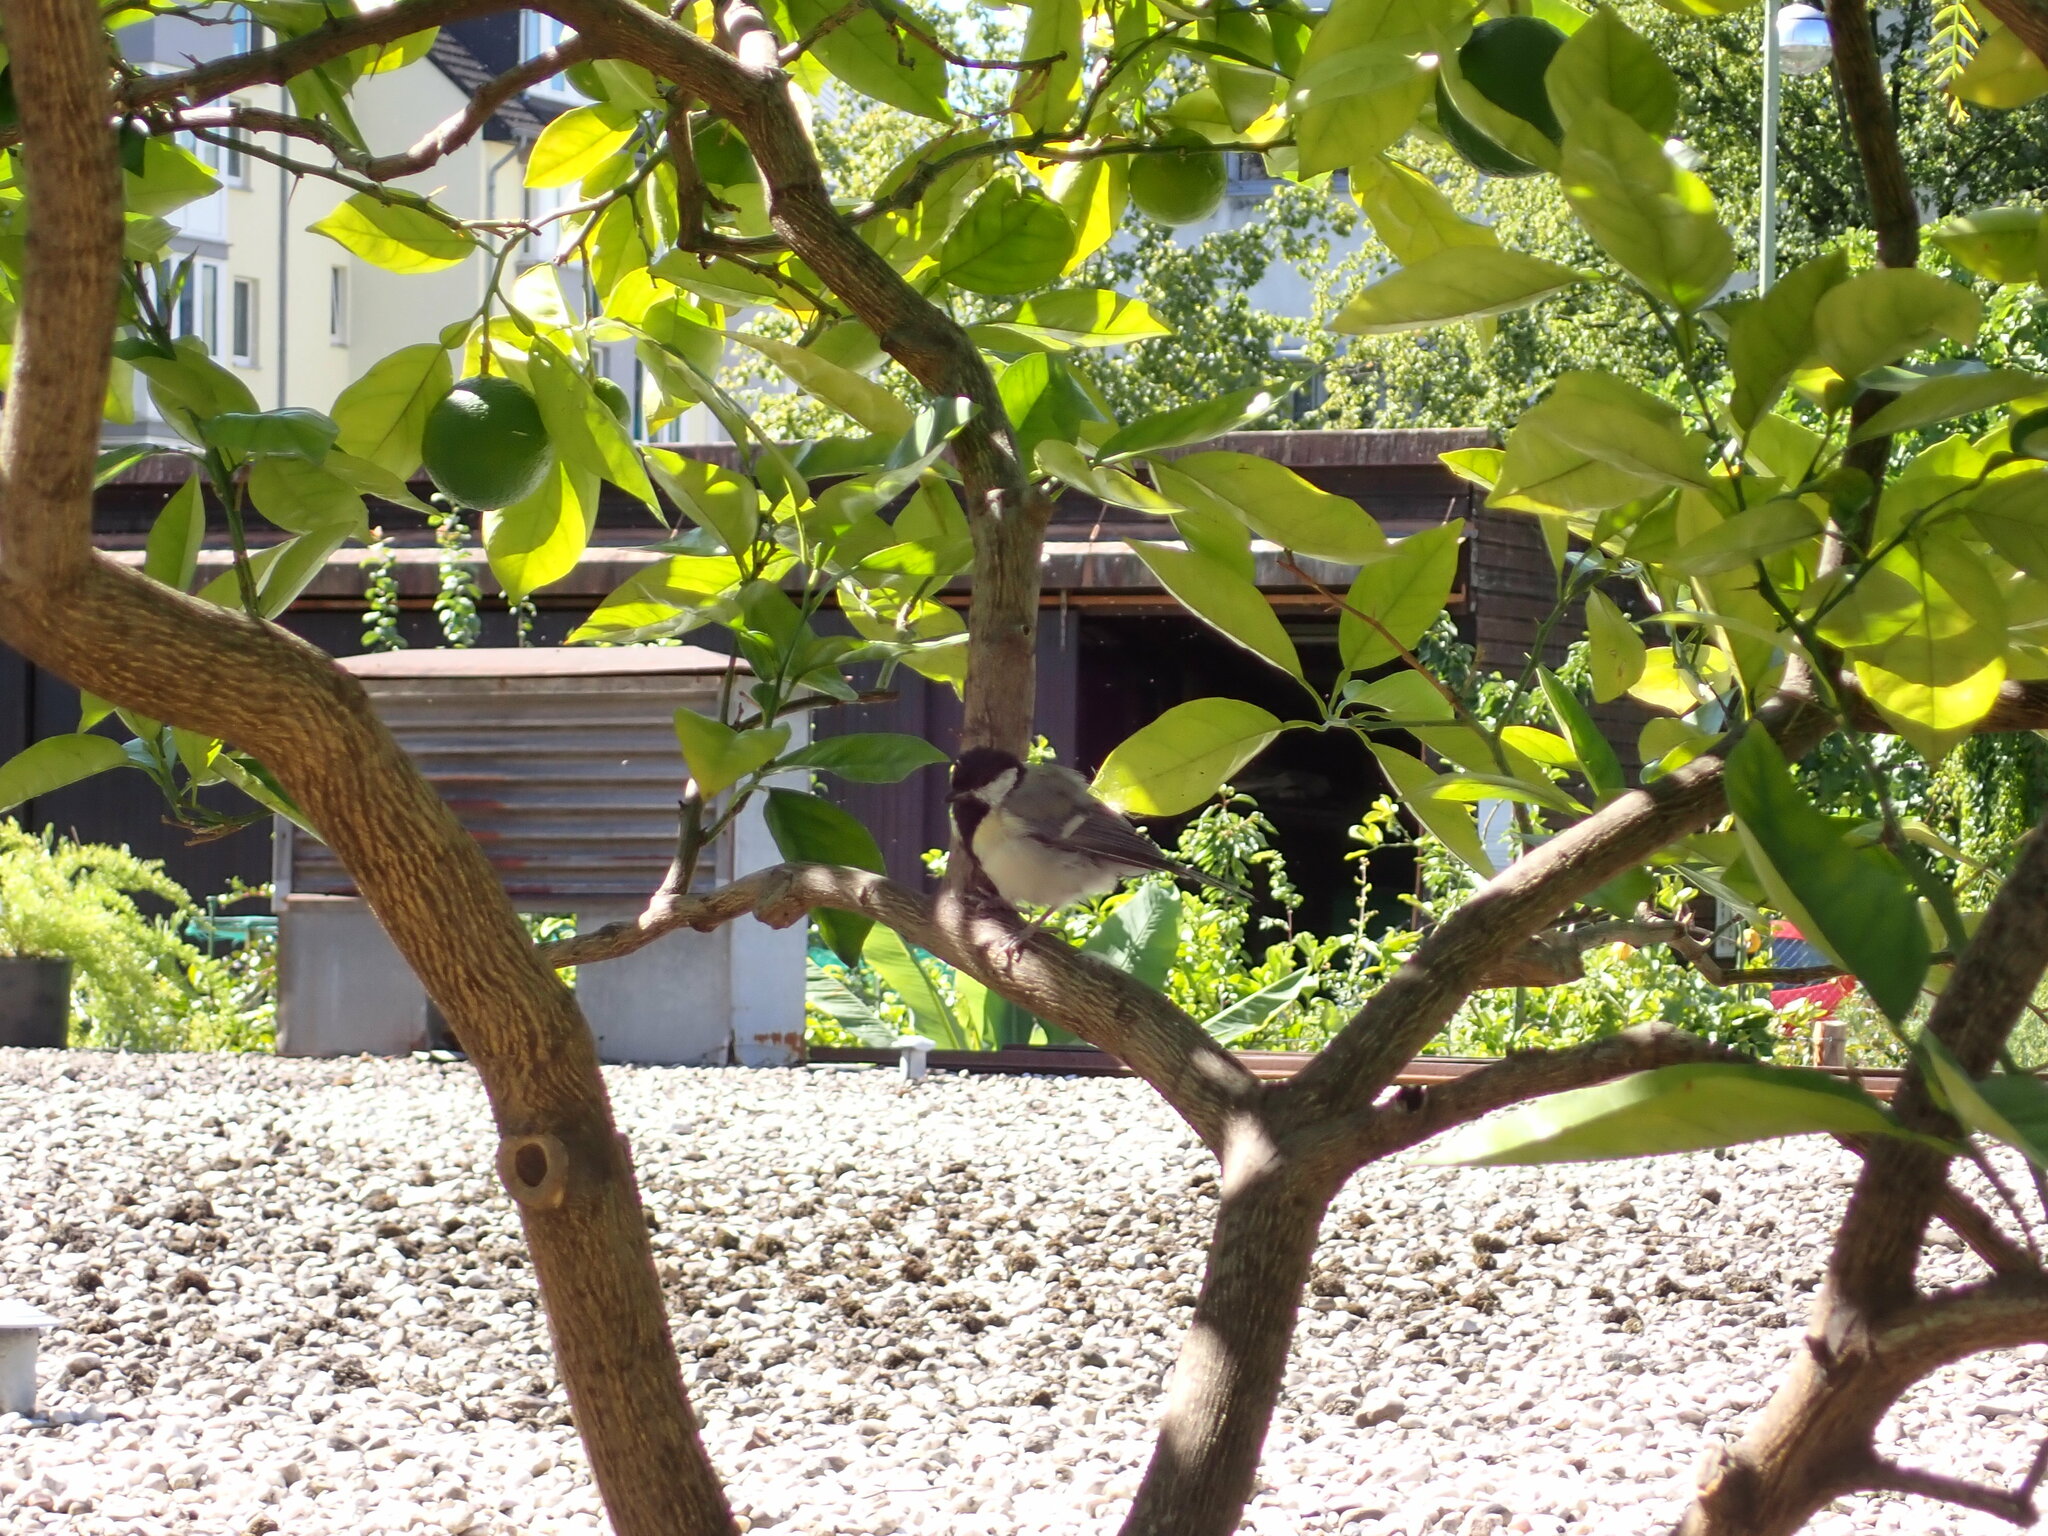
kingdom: Animalia
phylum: Chordata
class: Aves
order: Passeriformes
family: Paridae
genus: Parus
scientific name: Parus major
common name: Great tit
